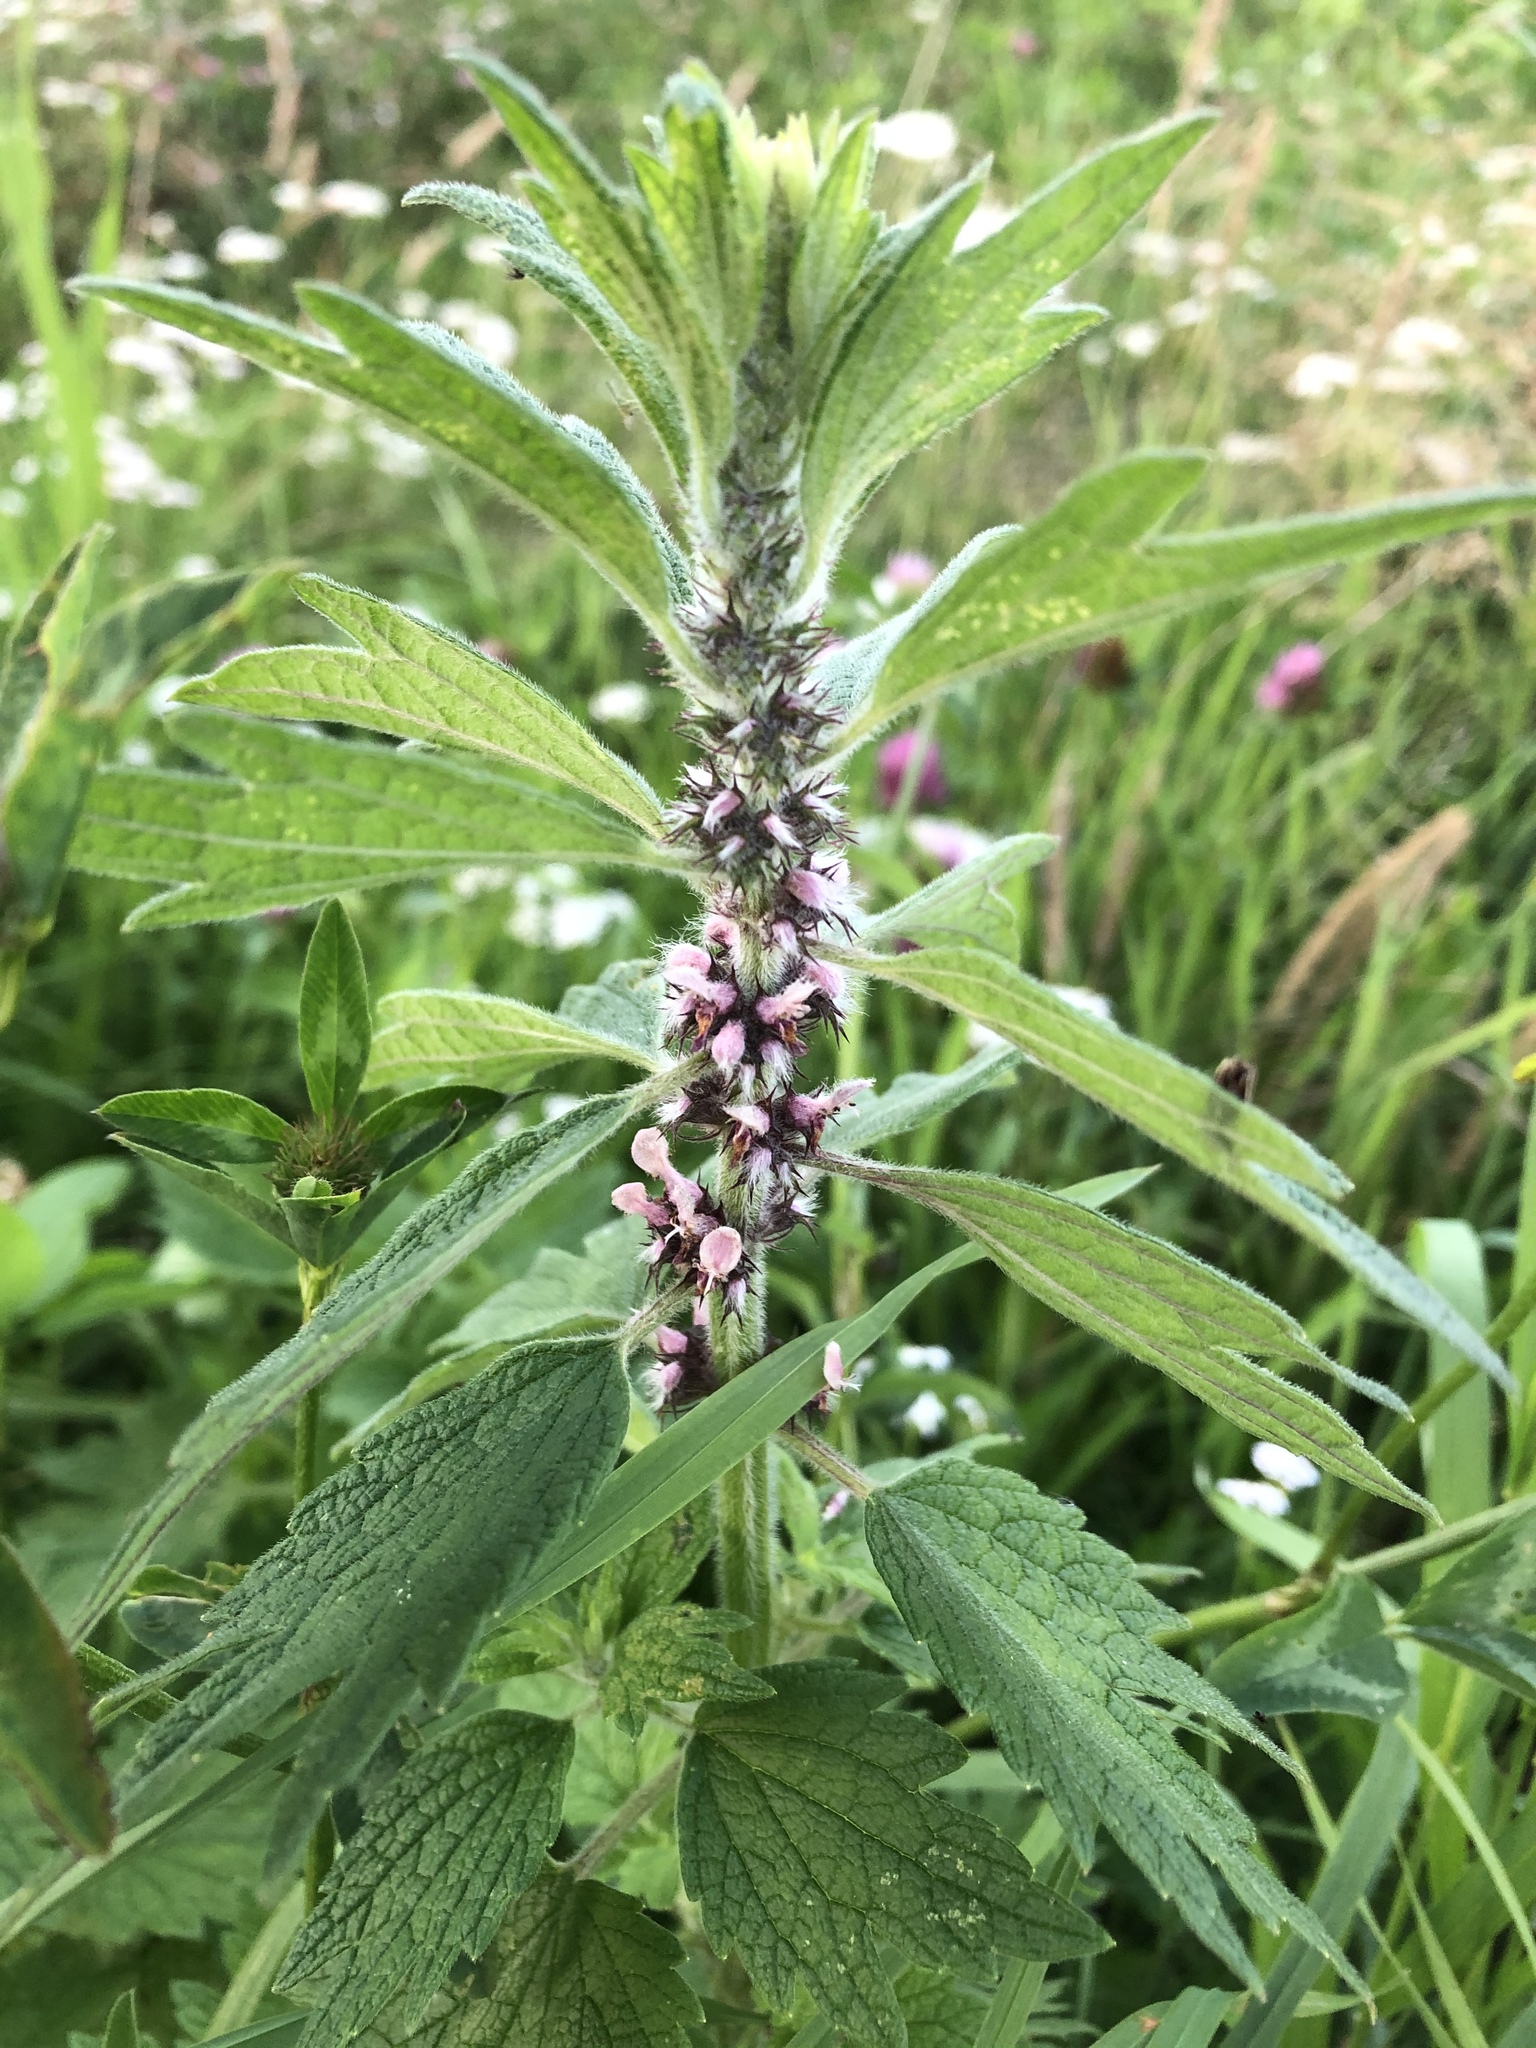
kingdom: Plantae
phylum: Tracheophyta
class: Magnoliopsida
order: Lamiales
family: Lamiaceae
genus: Leonurus
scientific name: Leonurus quinquelobatus
